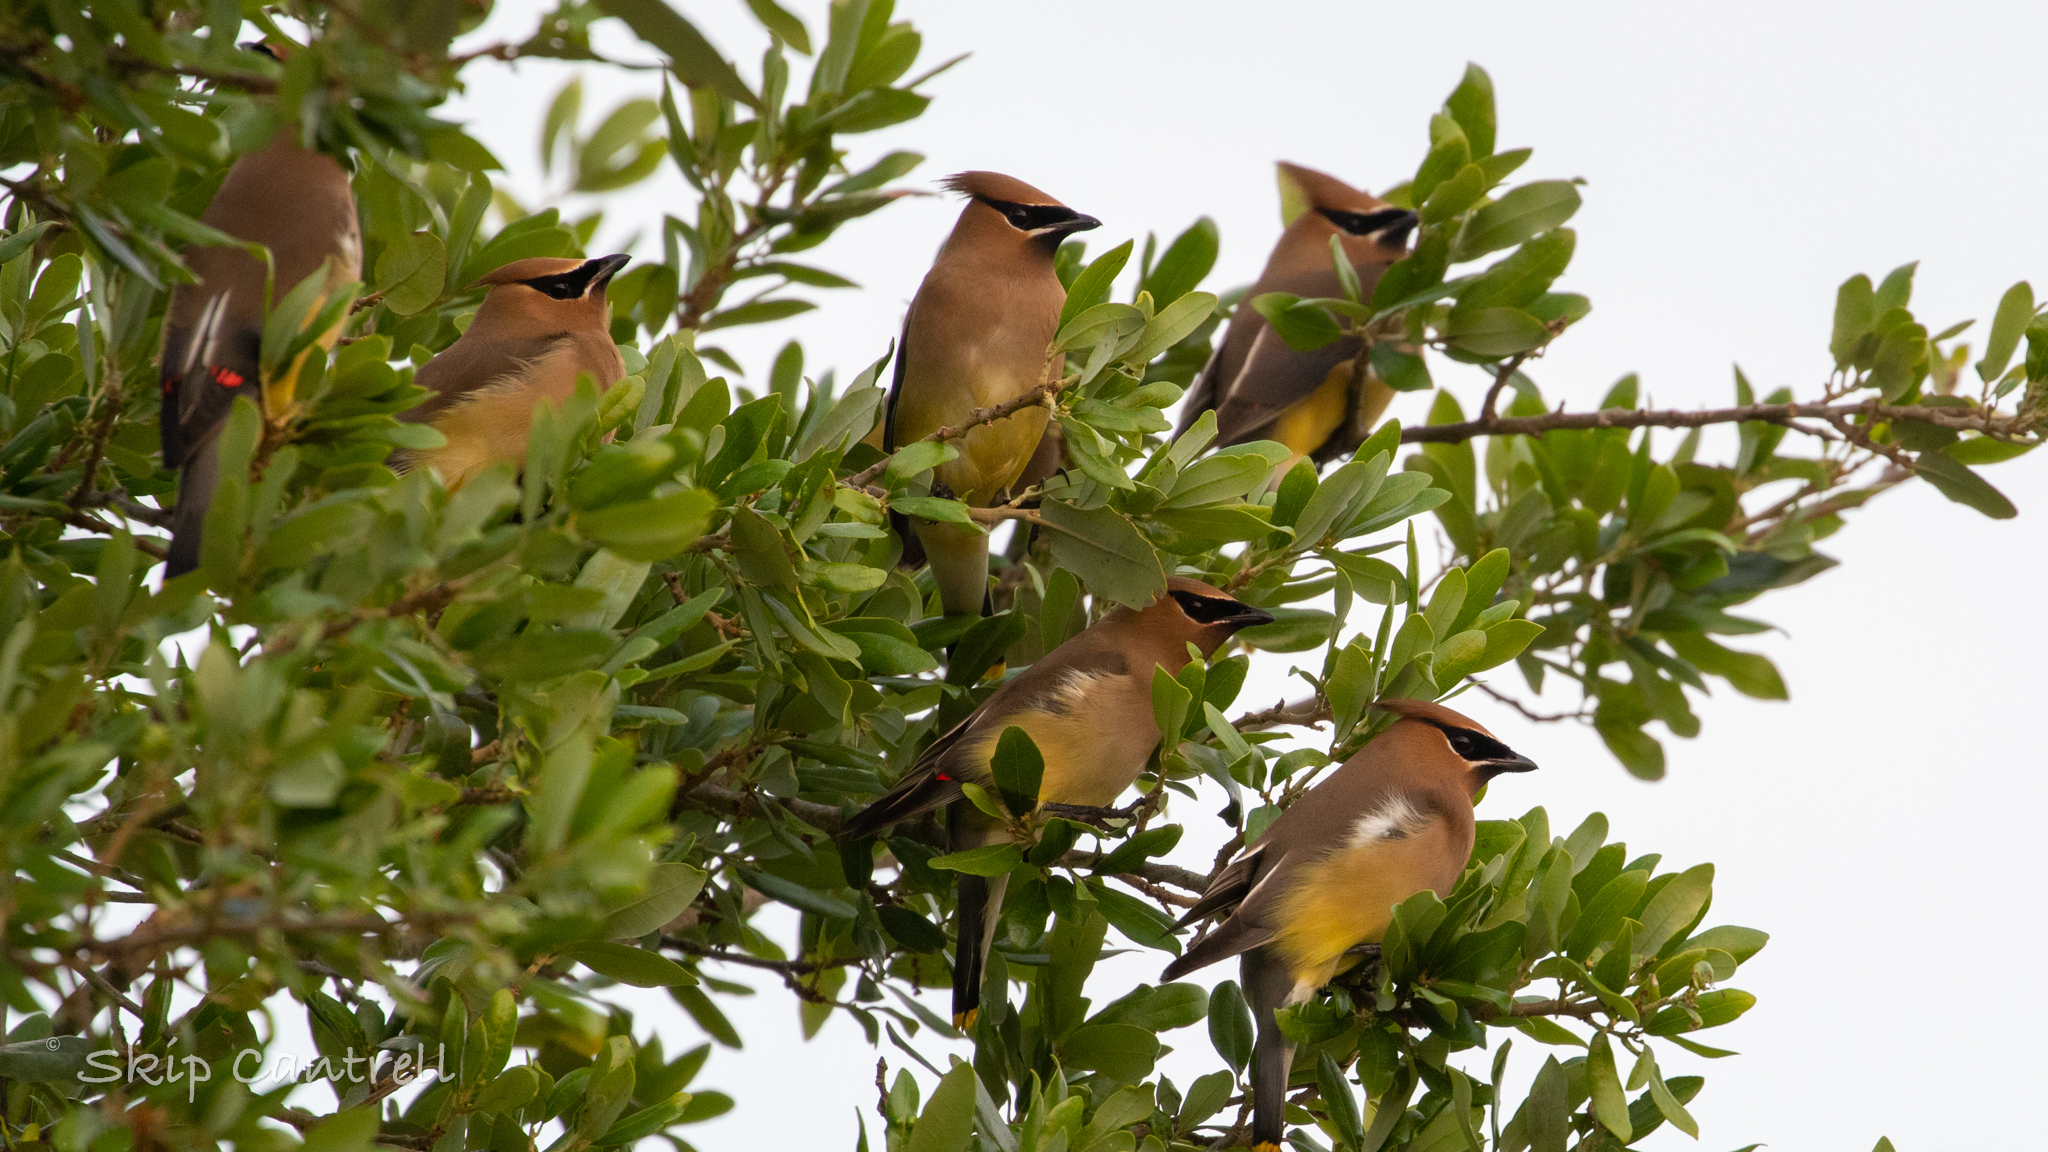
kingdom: Animalia
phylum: Chordata
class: Aves
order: Passeriformes
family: Bombycillidae
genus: Bombycilla
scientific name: Bombycilla cedrorum
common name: Cedar waxwing
